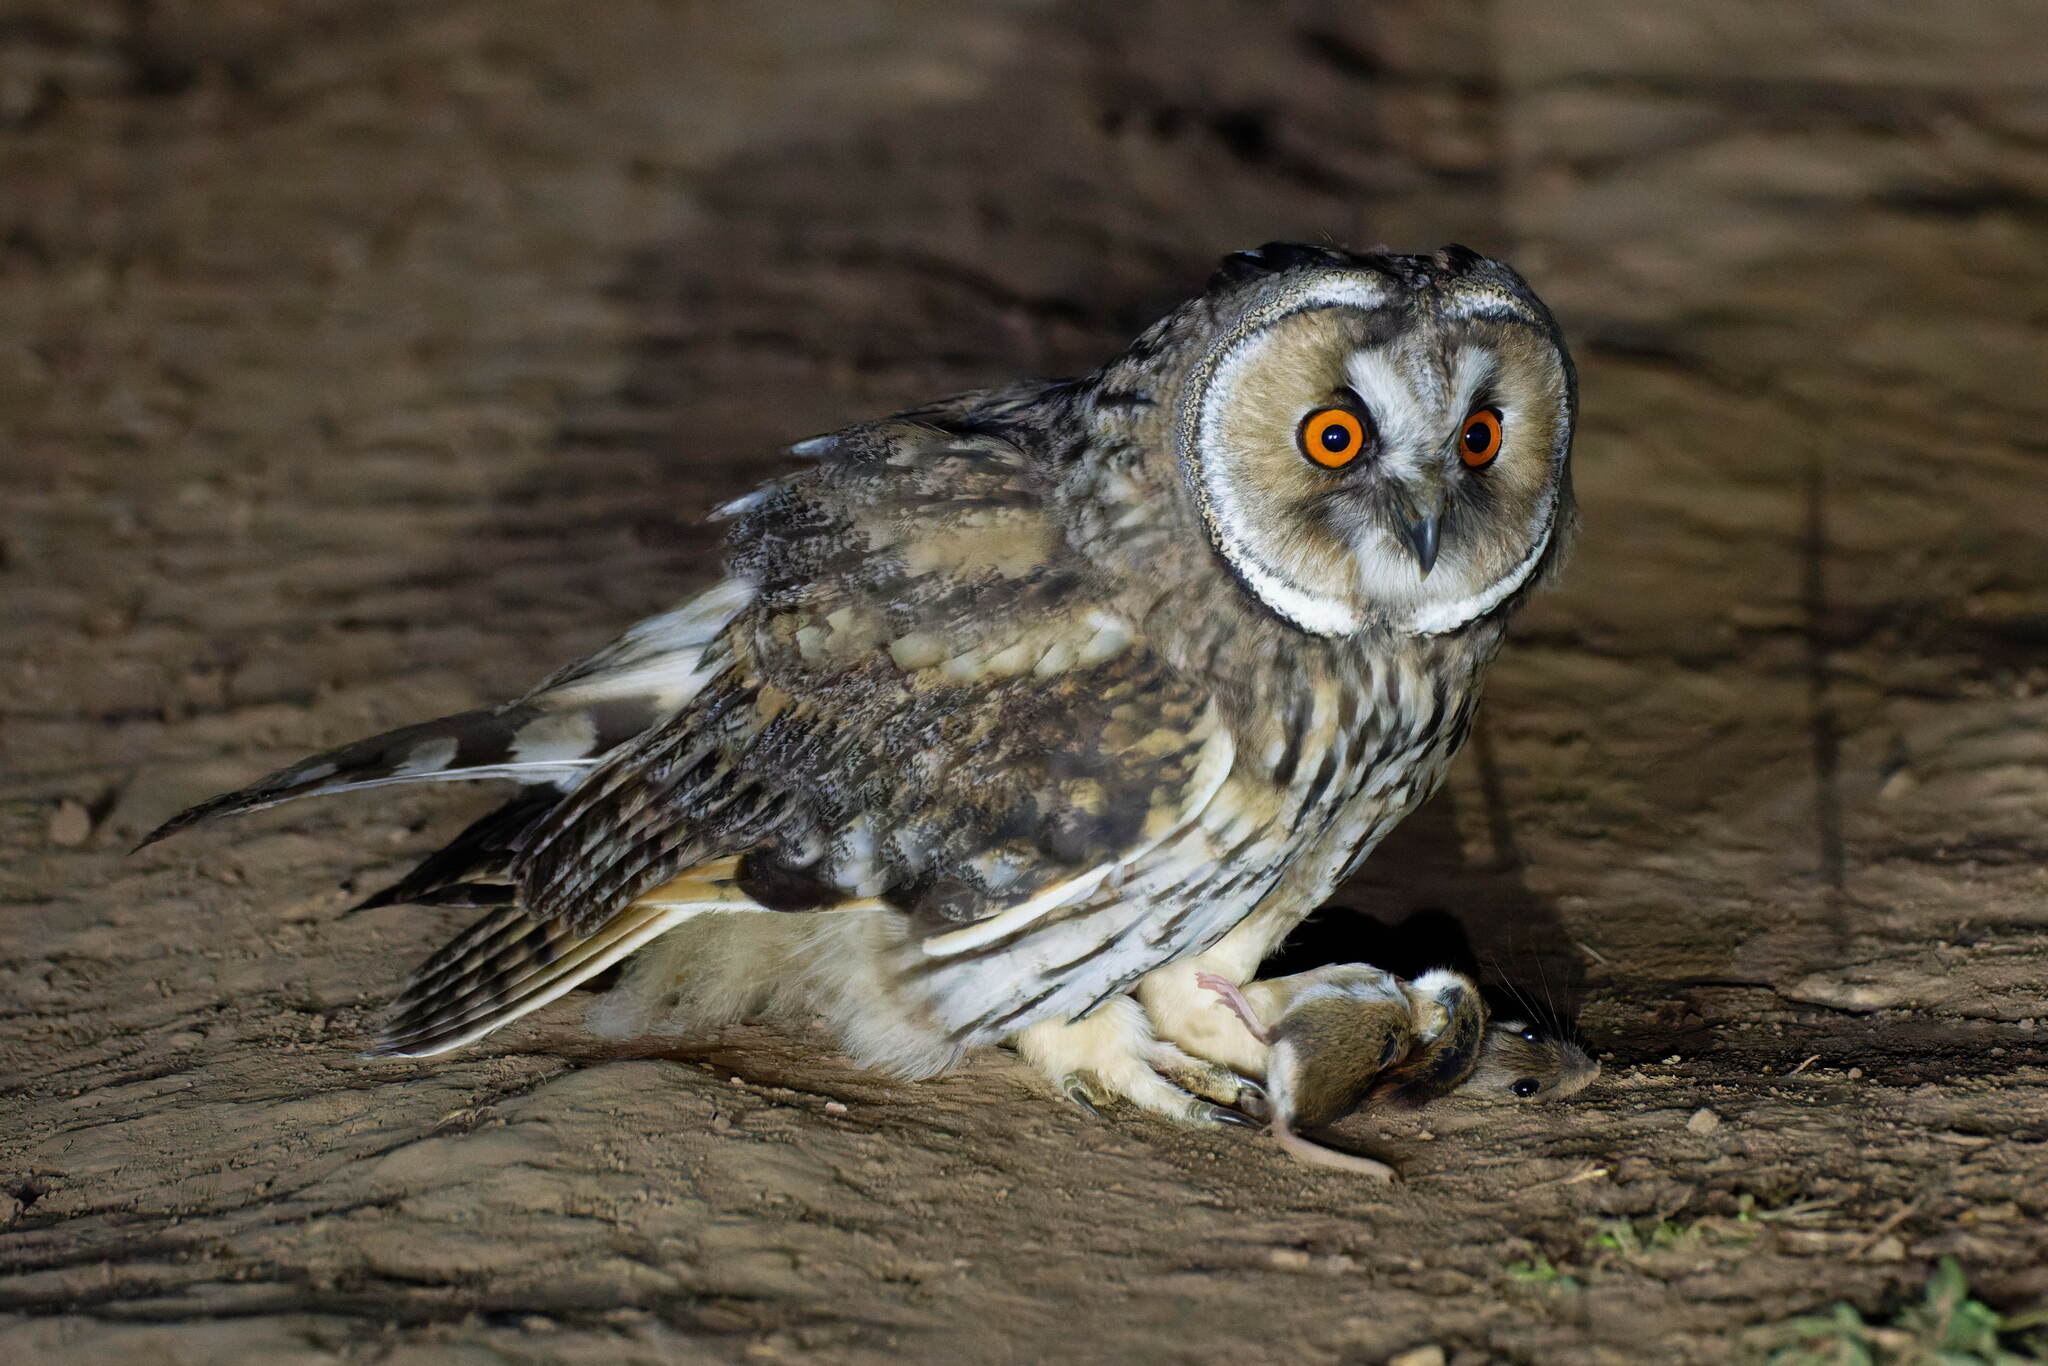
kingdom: Animalia
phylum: Chordata
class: Aves
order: Strigiformes
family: Strigidae
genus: Asio
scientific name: Asio otus
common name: Long-eared owl
